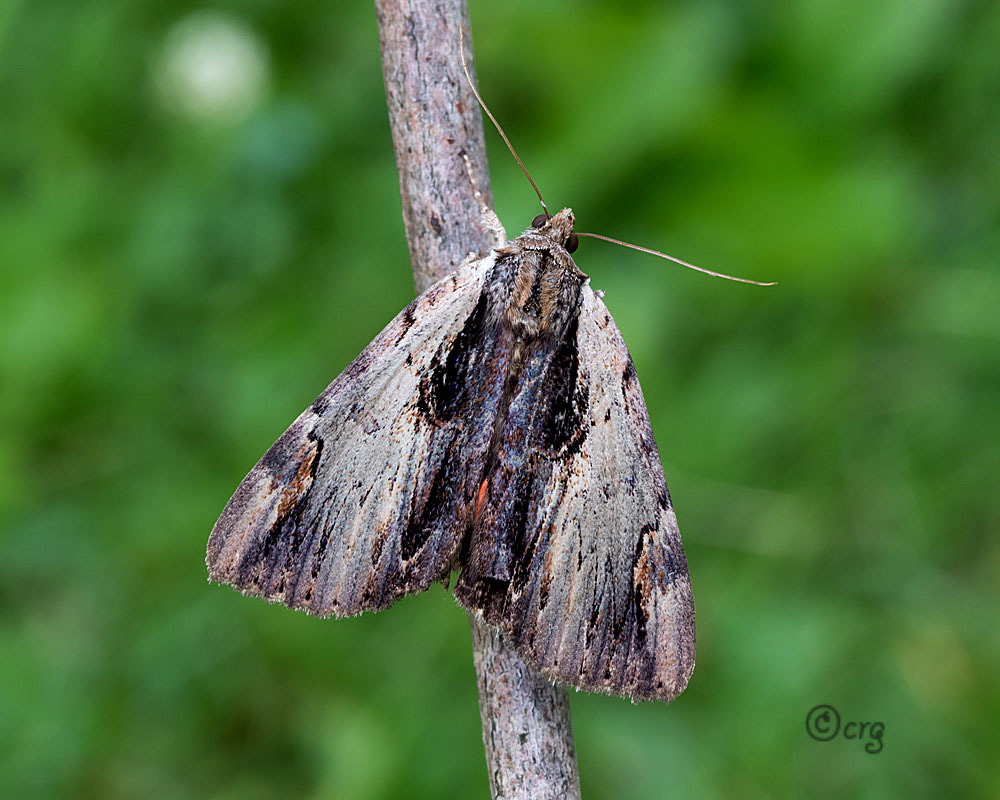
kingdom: Animalia
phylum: Arthropoda
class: Insecta
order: Lepidoptera
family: Erebidae
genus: Catocala
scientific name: Catocala ultronia
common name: Ultronia underwing
